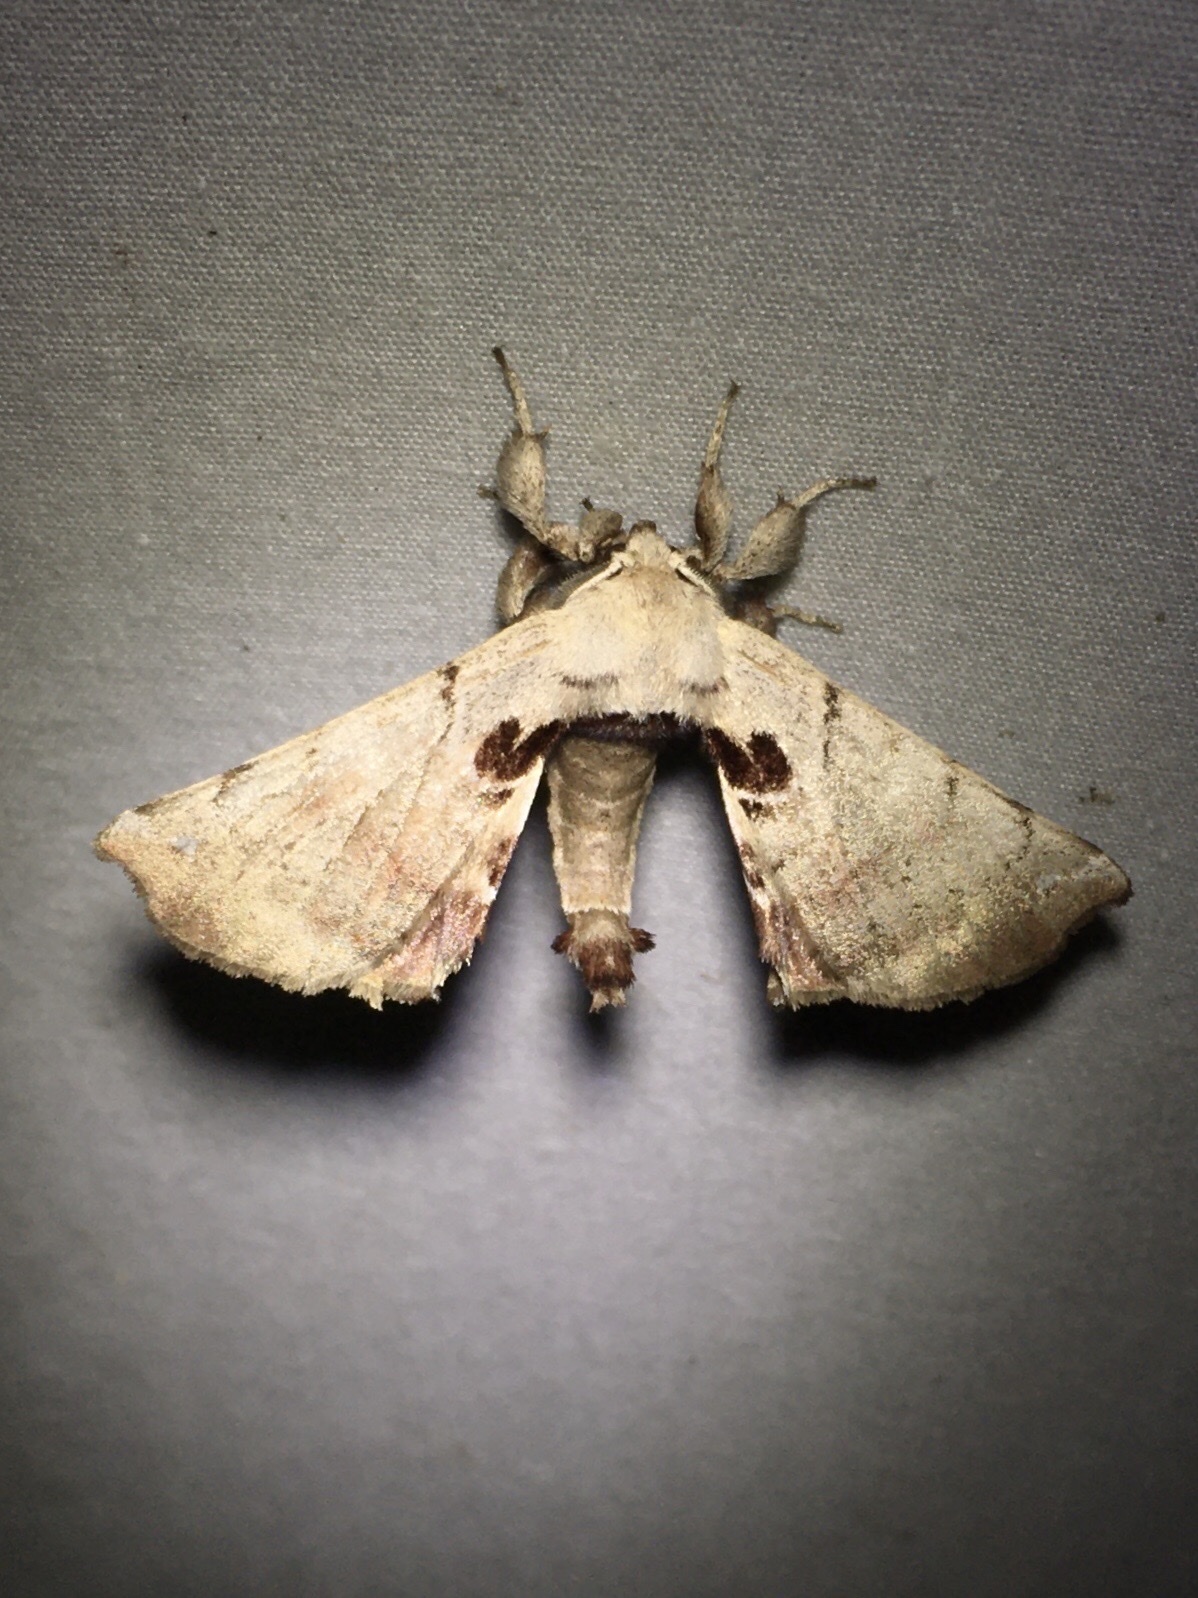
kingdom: Animalia
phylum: Arthropoda
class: Insecta
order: Lepidoptera
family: Apatelodidae
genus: Hygrochroa
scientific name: Hygrochroa Apatelodes torrefacta
